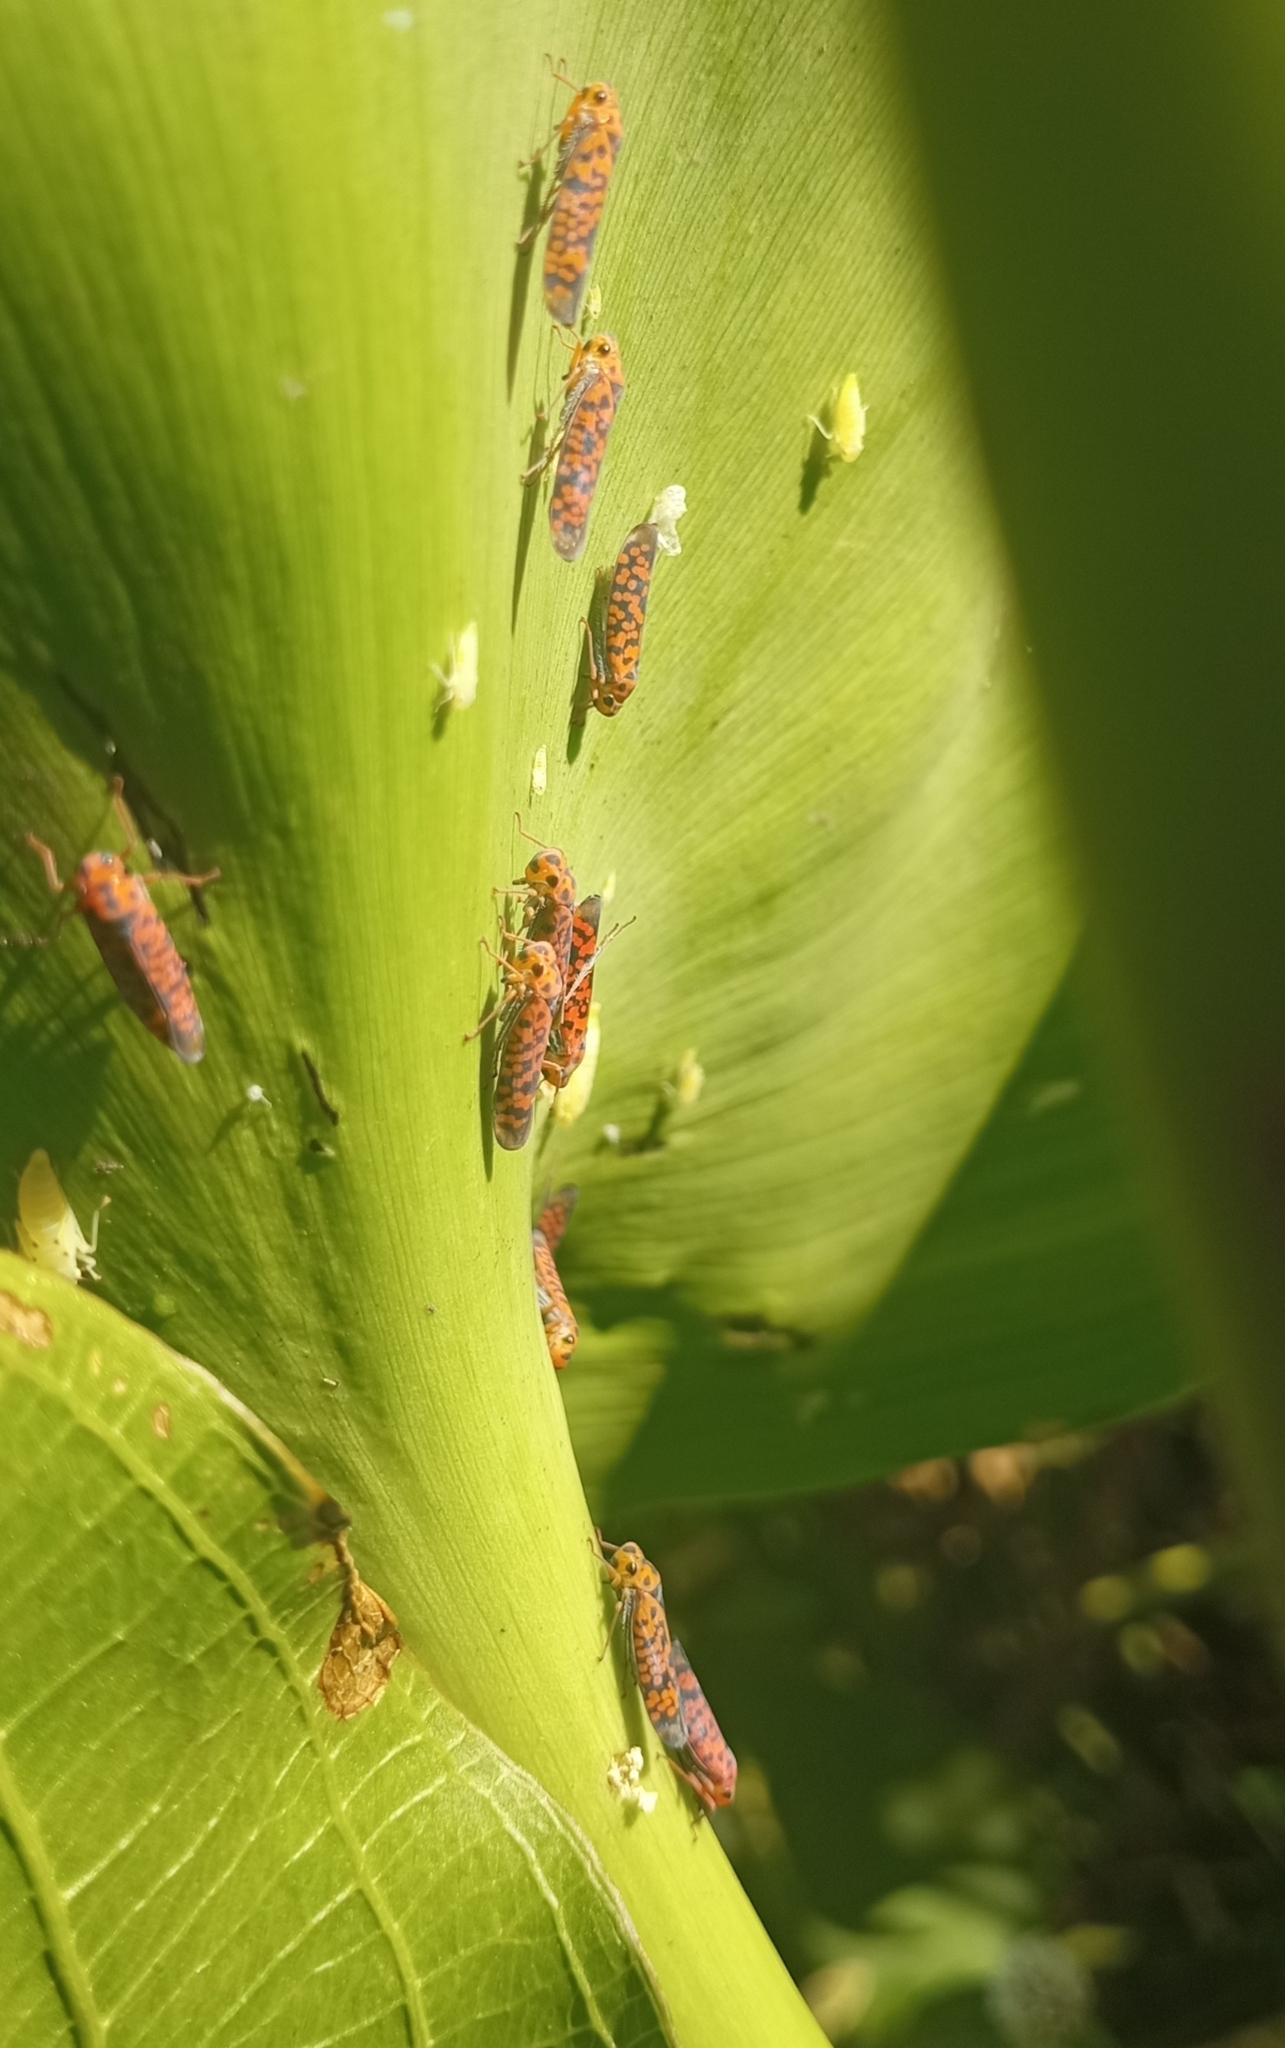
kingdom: Animalia
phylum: Arthropoda
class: Insecta
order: Hemiptera
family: Cicadellidae
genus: Pawiloma
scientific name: Pawiloma victima
